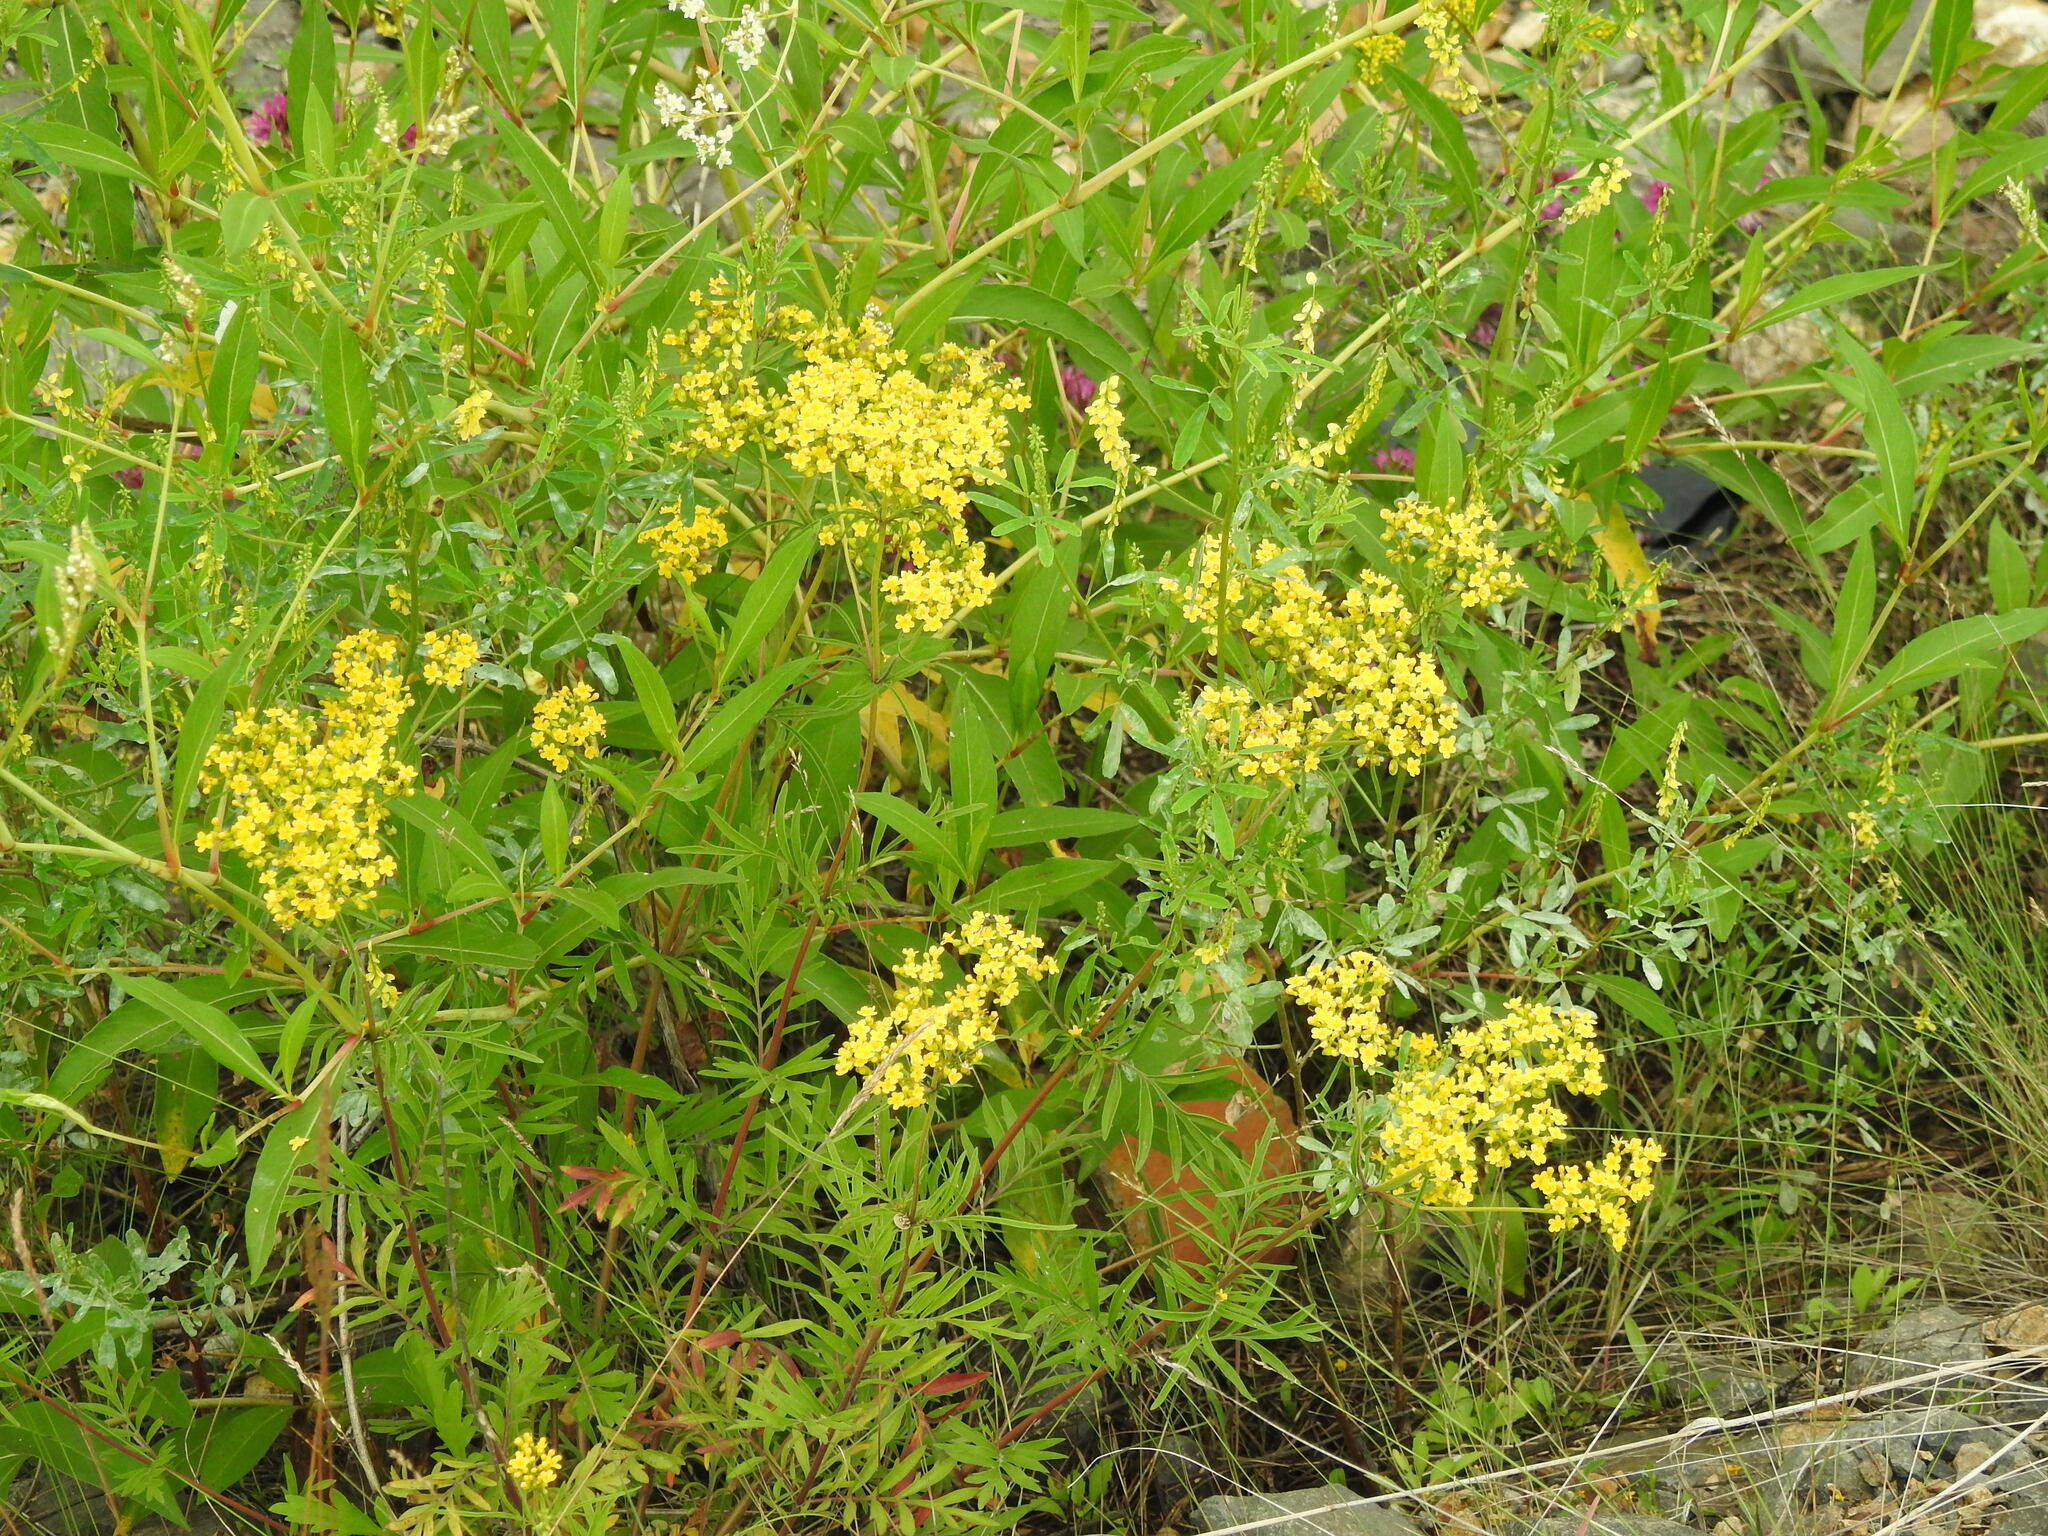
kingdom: Plantae
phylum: Tracheophyta
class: Magnoliopsida
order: Dipsacales
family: Caprifoliaceae
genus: Patrinia
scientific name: Patrinia rupestris
